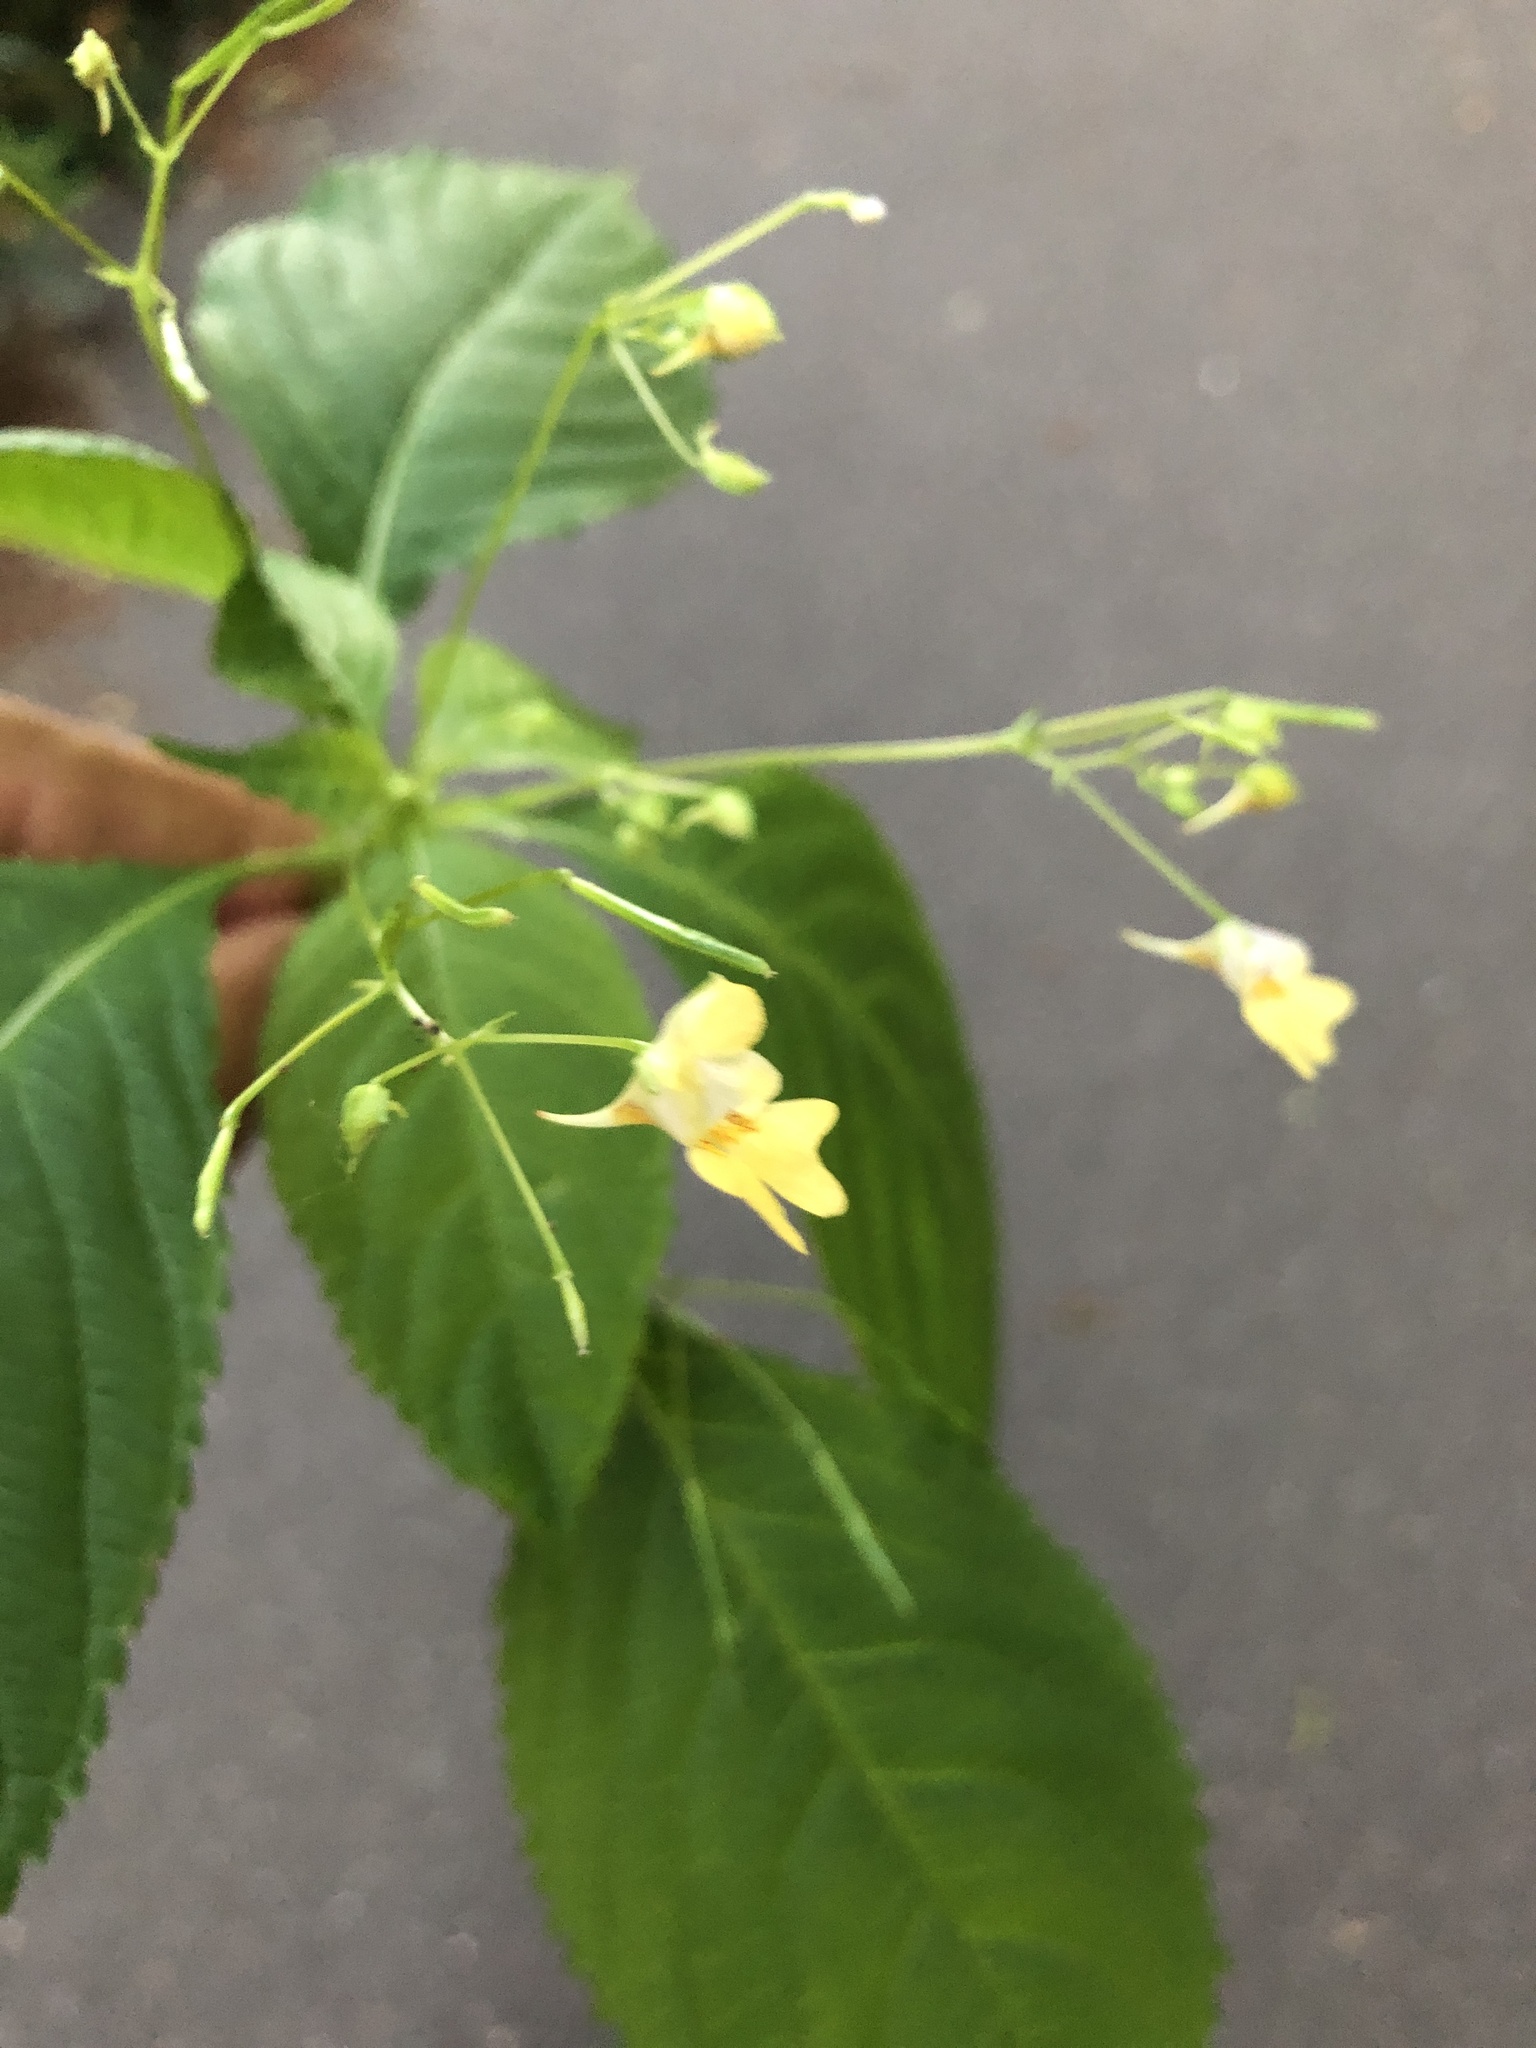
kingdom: Plantae
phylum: Tracheophyta
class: Magnoliopsida
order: Ericales
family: Balsaminaceae
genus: Impatiens
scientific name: Impatiens parviflora
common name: Small balsam
